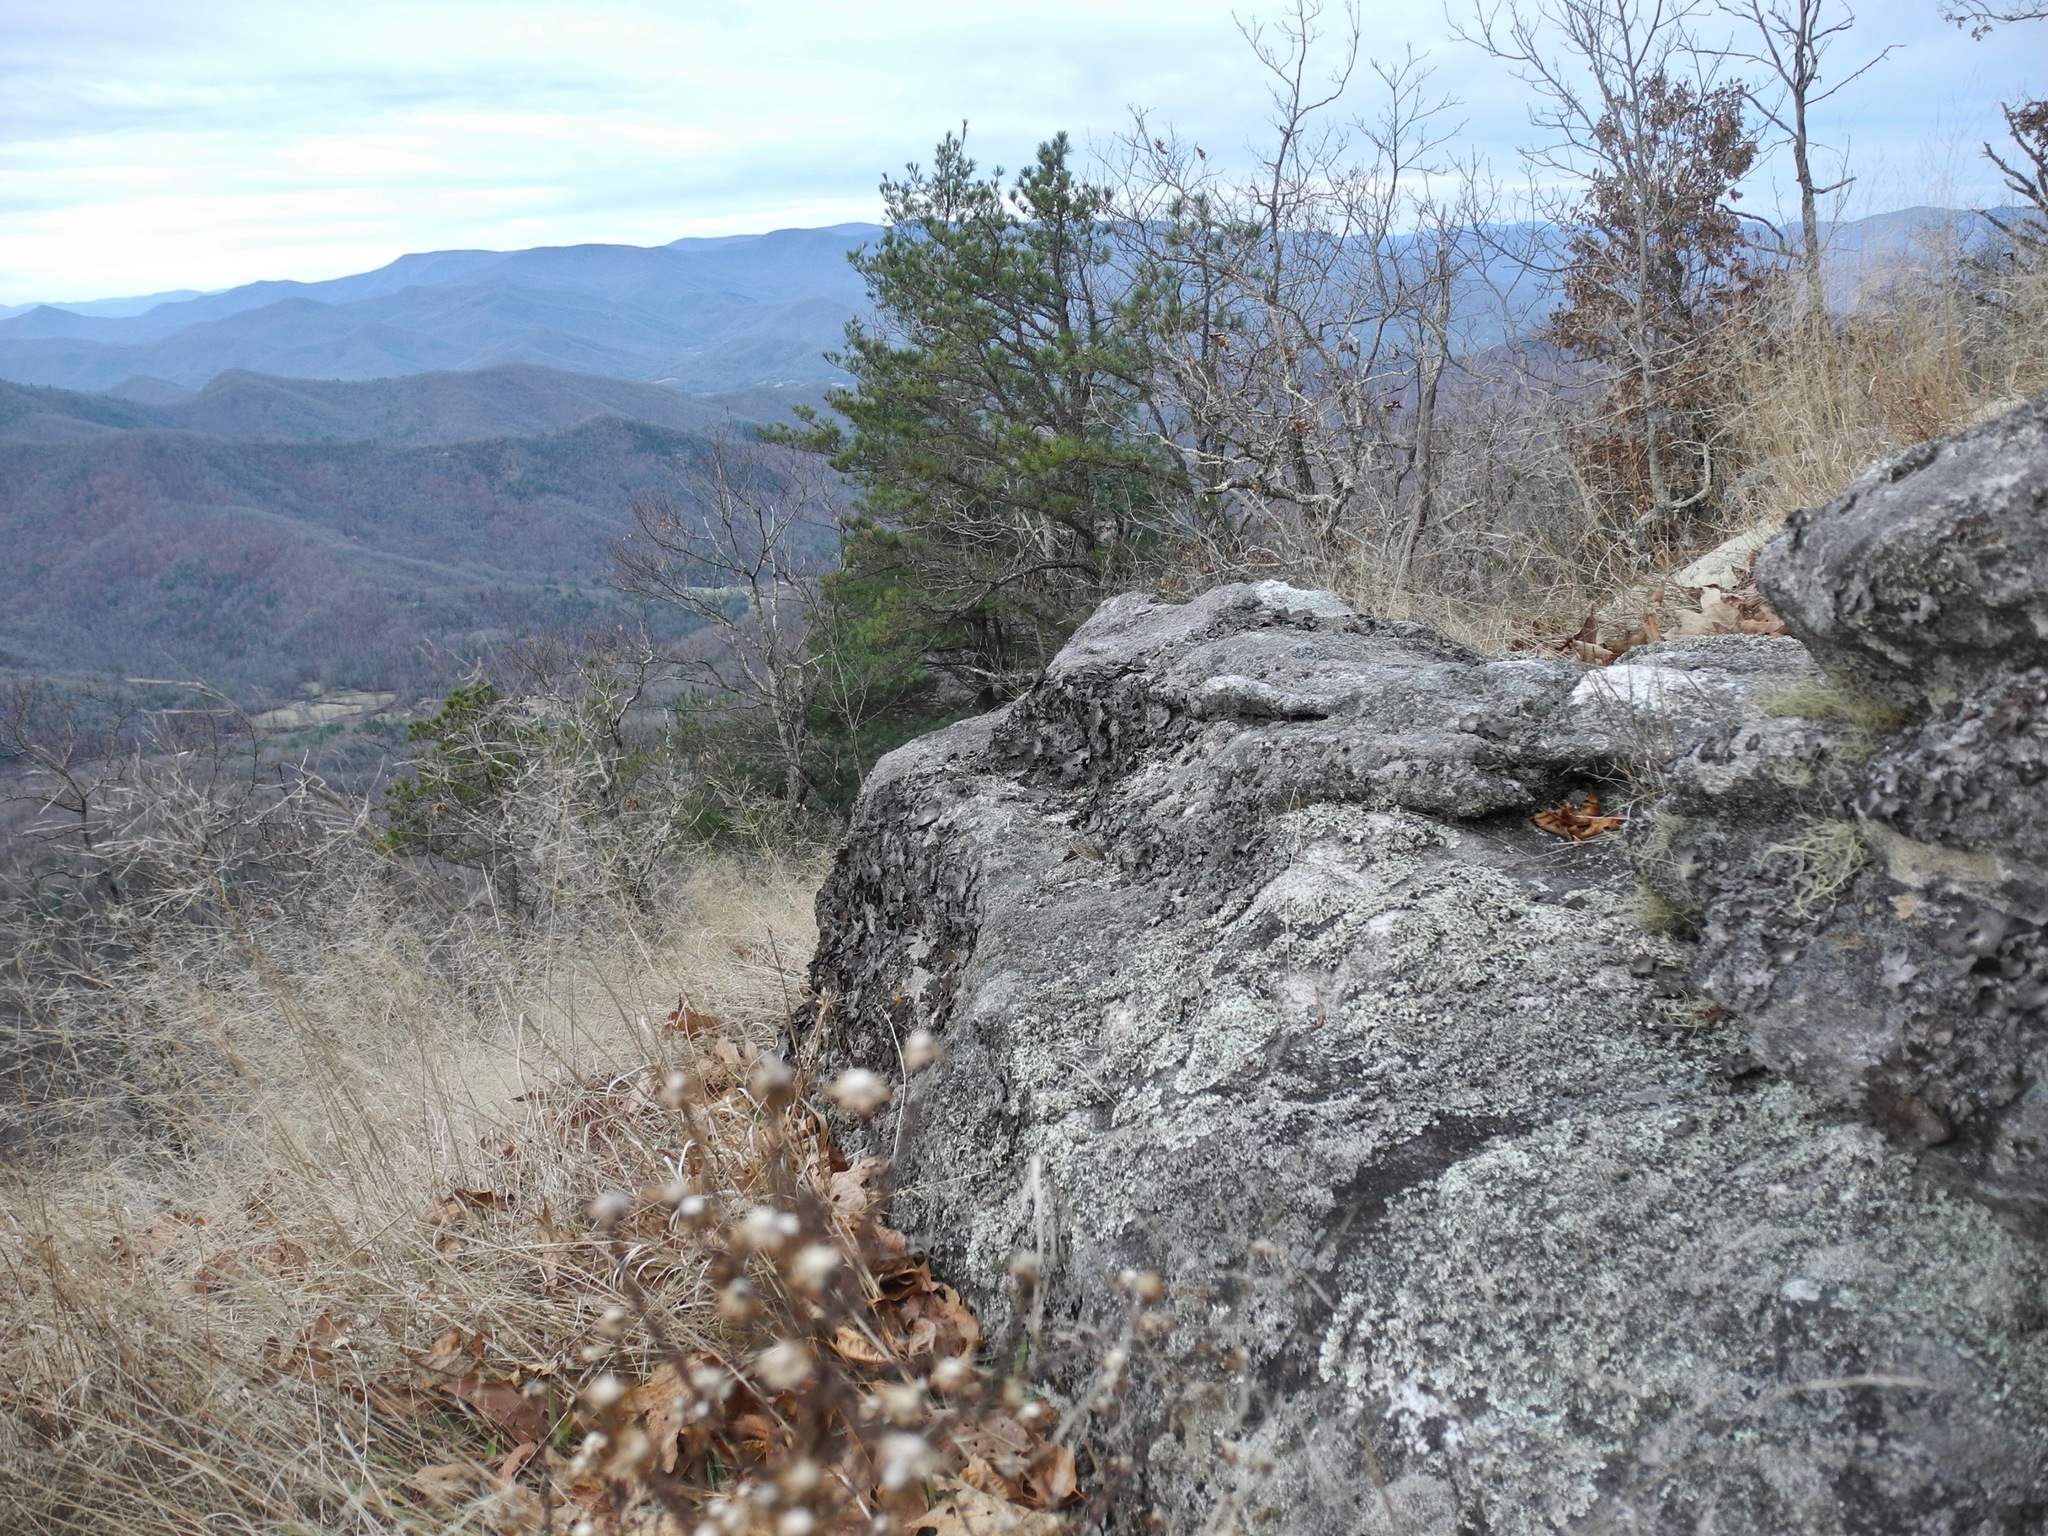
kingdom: Fungi
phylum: Ascomycota
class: Lecanoromycetes
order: Umbilicariales
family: Umbilicariaceae
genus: Lasallia
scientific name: Lasallia papulosa
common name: Common toadskin lichen
